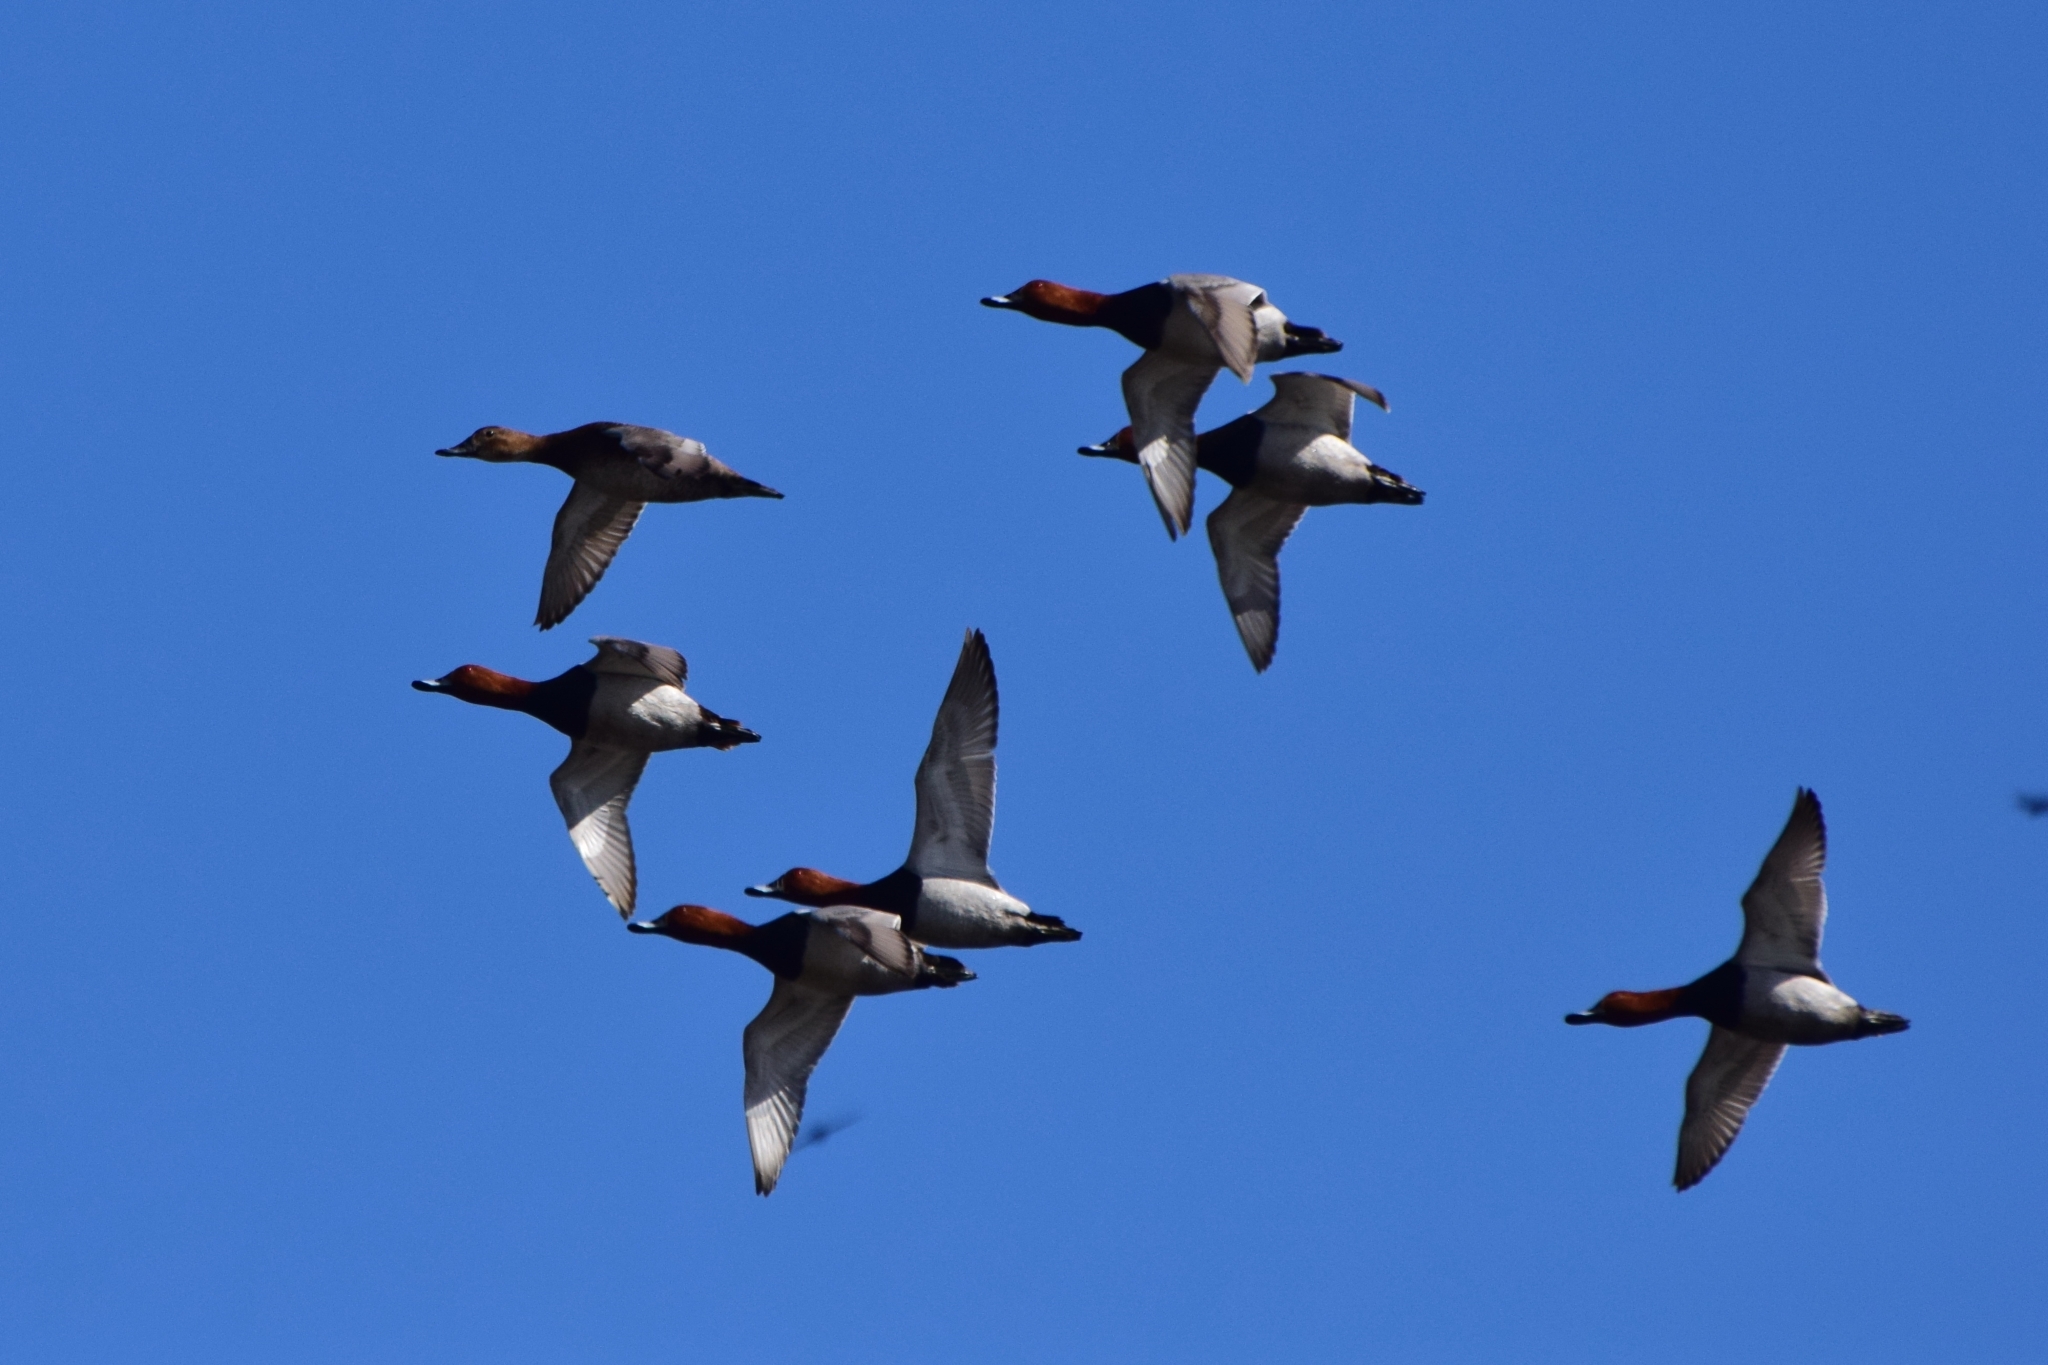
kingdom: Animalia
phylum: Chordata
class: Aves
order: Anseriformes
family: Anatidae
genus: Aythya
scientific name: Aythya ferina
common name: Common pochard
